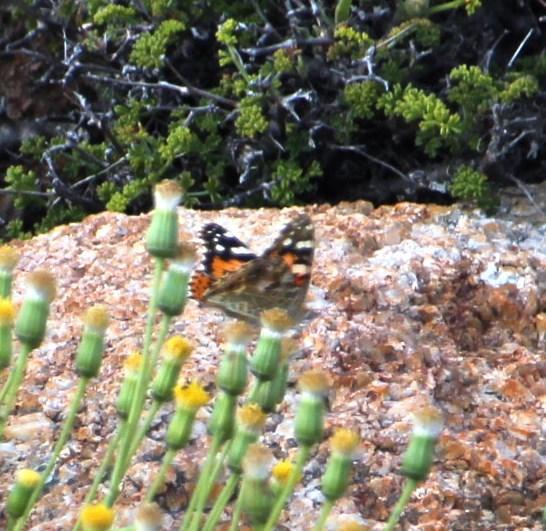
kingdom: Animalia
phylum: Arthropoda
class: Insecta
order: Lepidoptera
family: Nymphalidae
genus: Vanessa
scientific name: Vanessa cardui
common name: Painted lady
